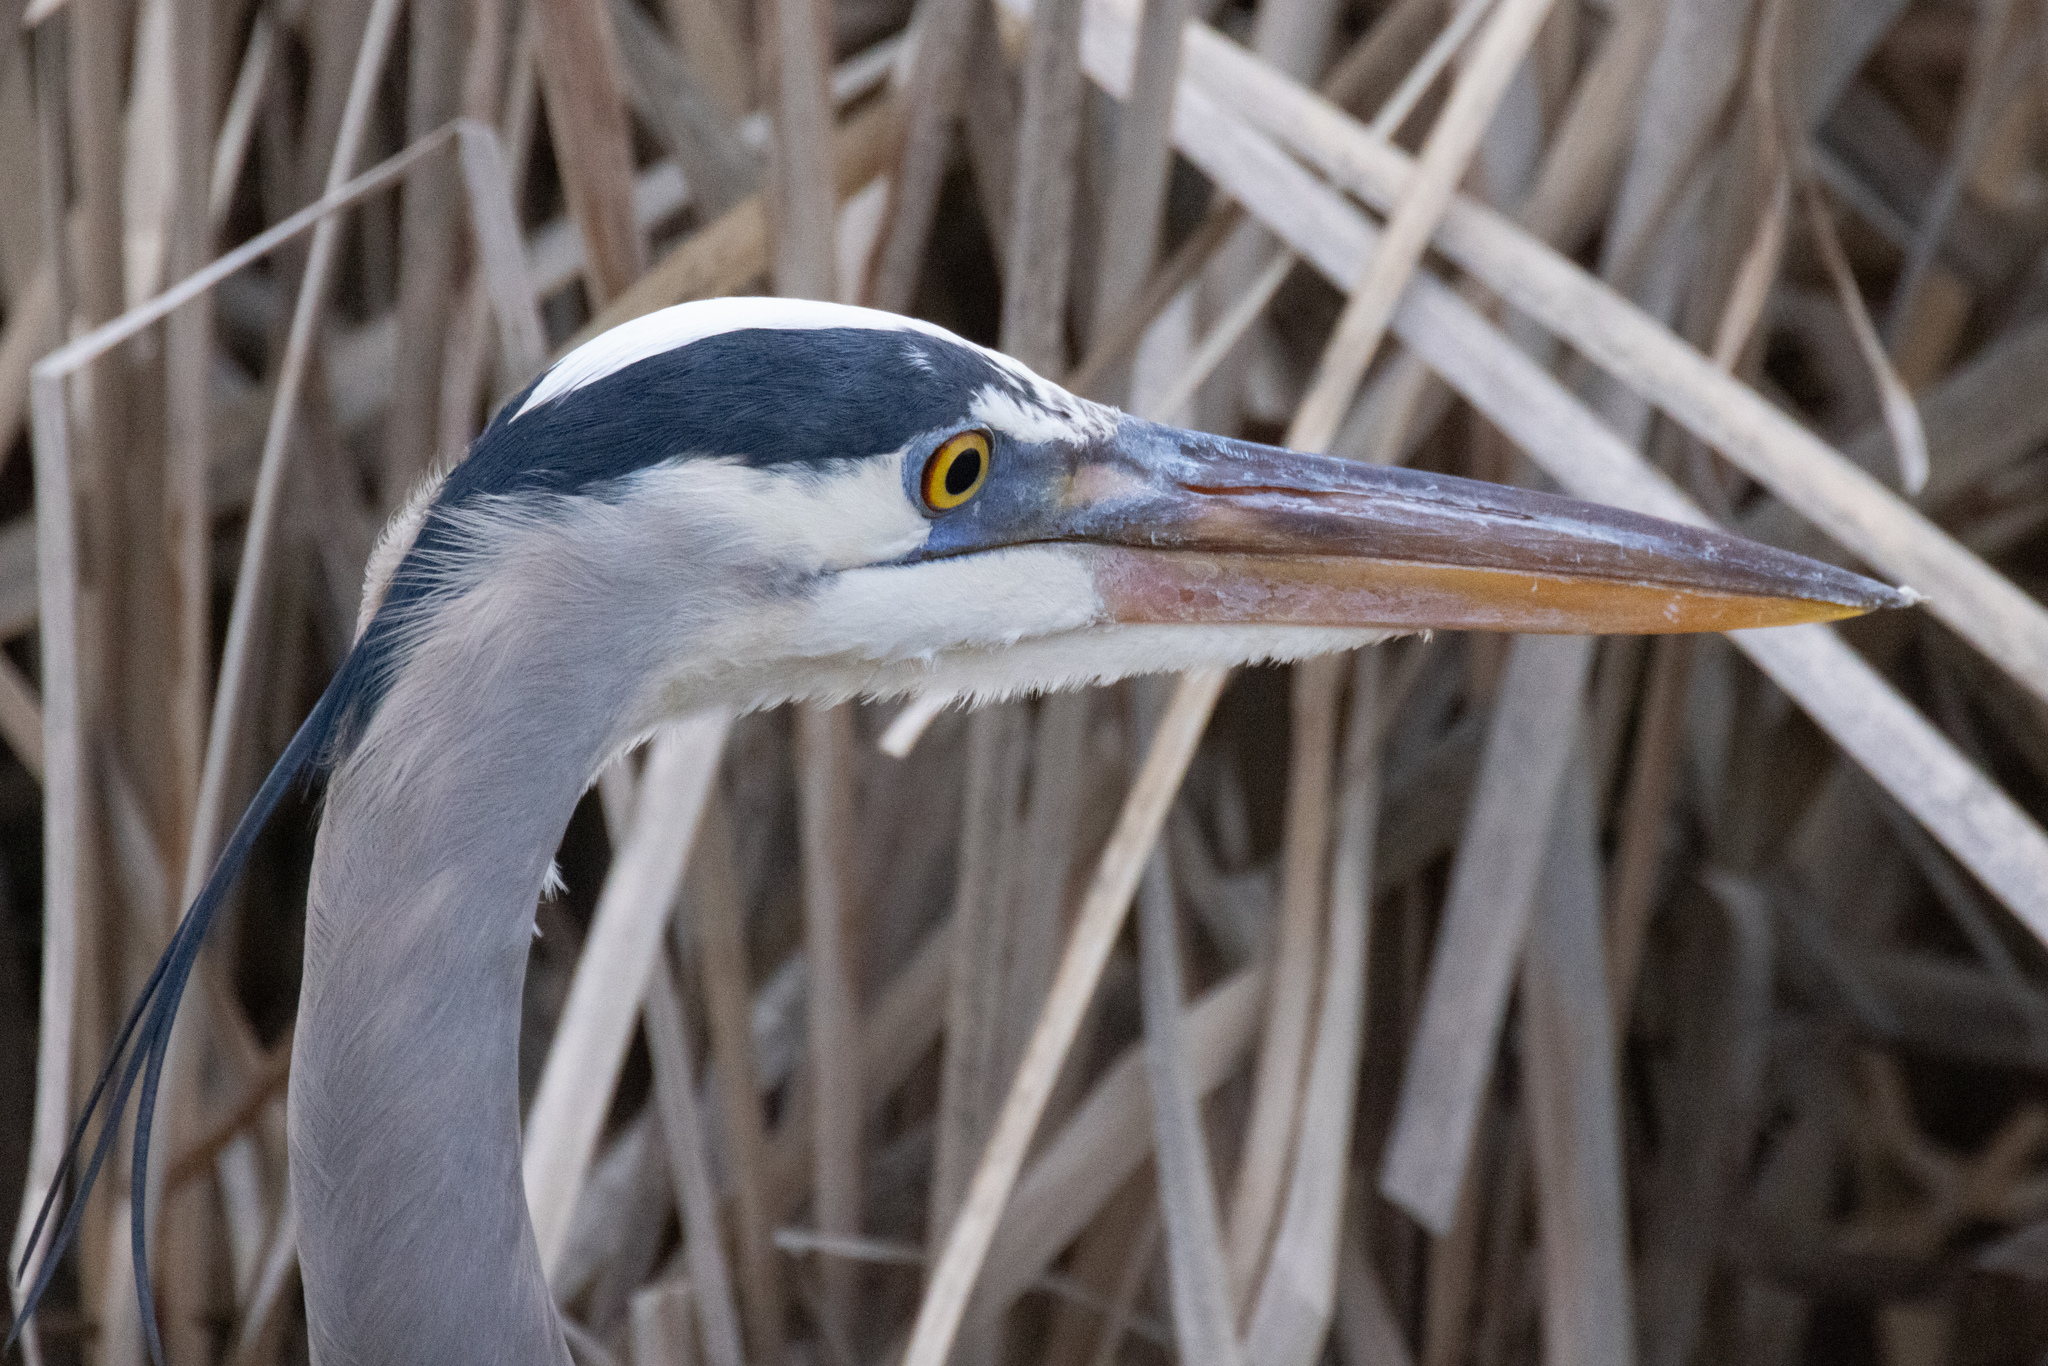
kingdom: Animalia
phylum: Chordata
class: Aves
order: Pelecaniformes
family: Ardeidae
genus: Ardea
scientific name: Ardea herodias
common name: Great blue heron
